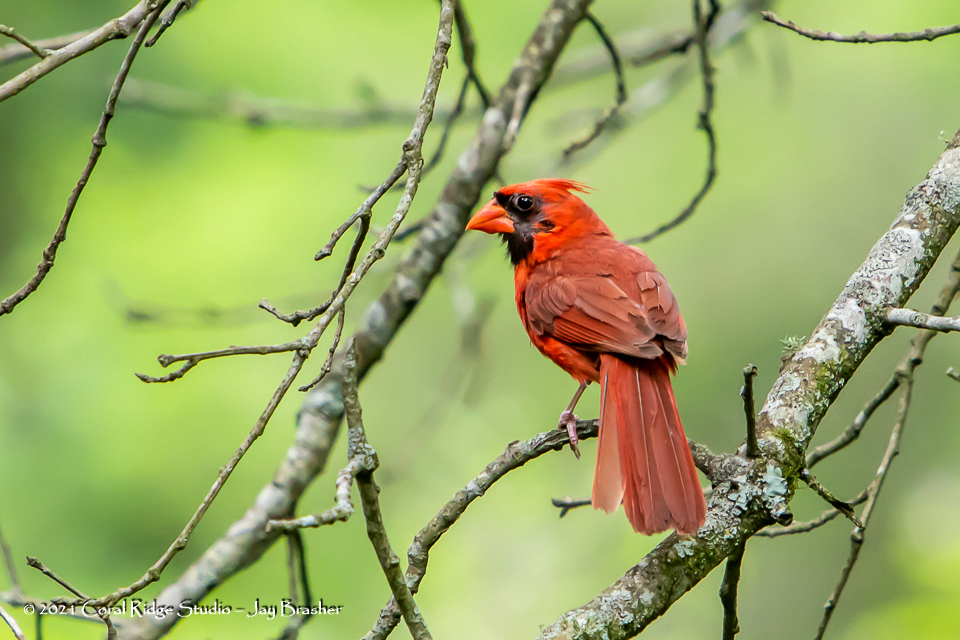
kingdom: Animalia
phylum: Chordata
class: Aves
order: Passeriformes
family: Cardinalidae
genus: Cardinalis
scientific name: Cardinalis cardinalis
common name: Northern cardinal
